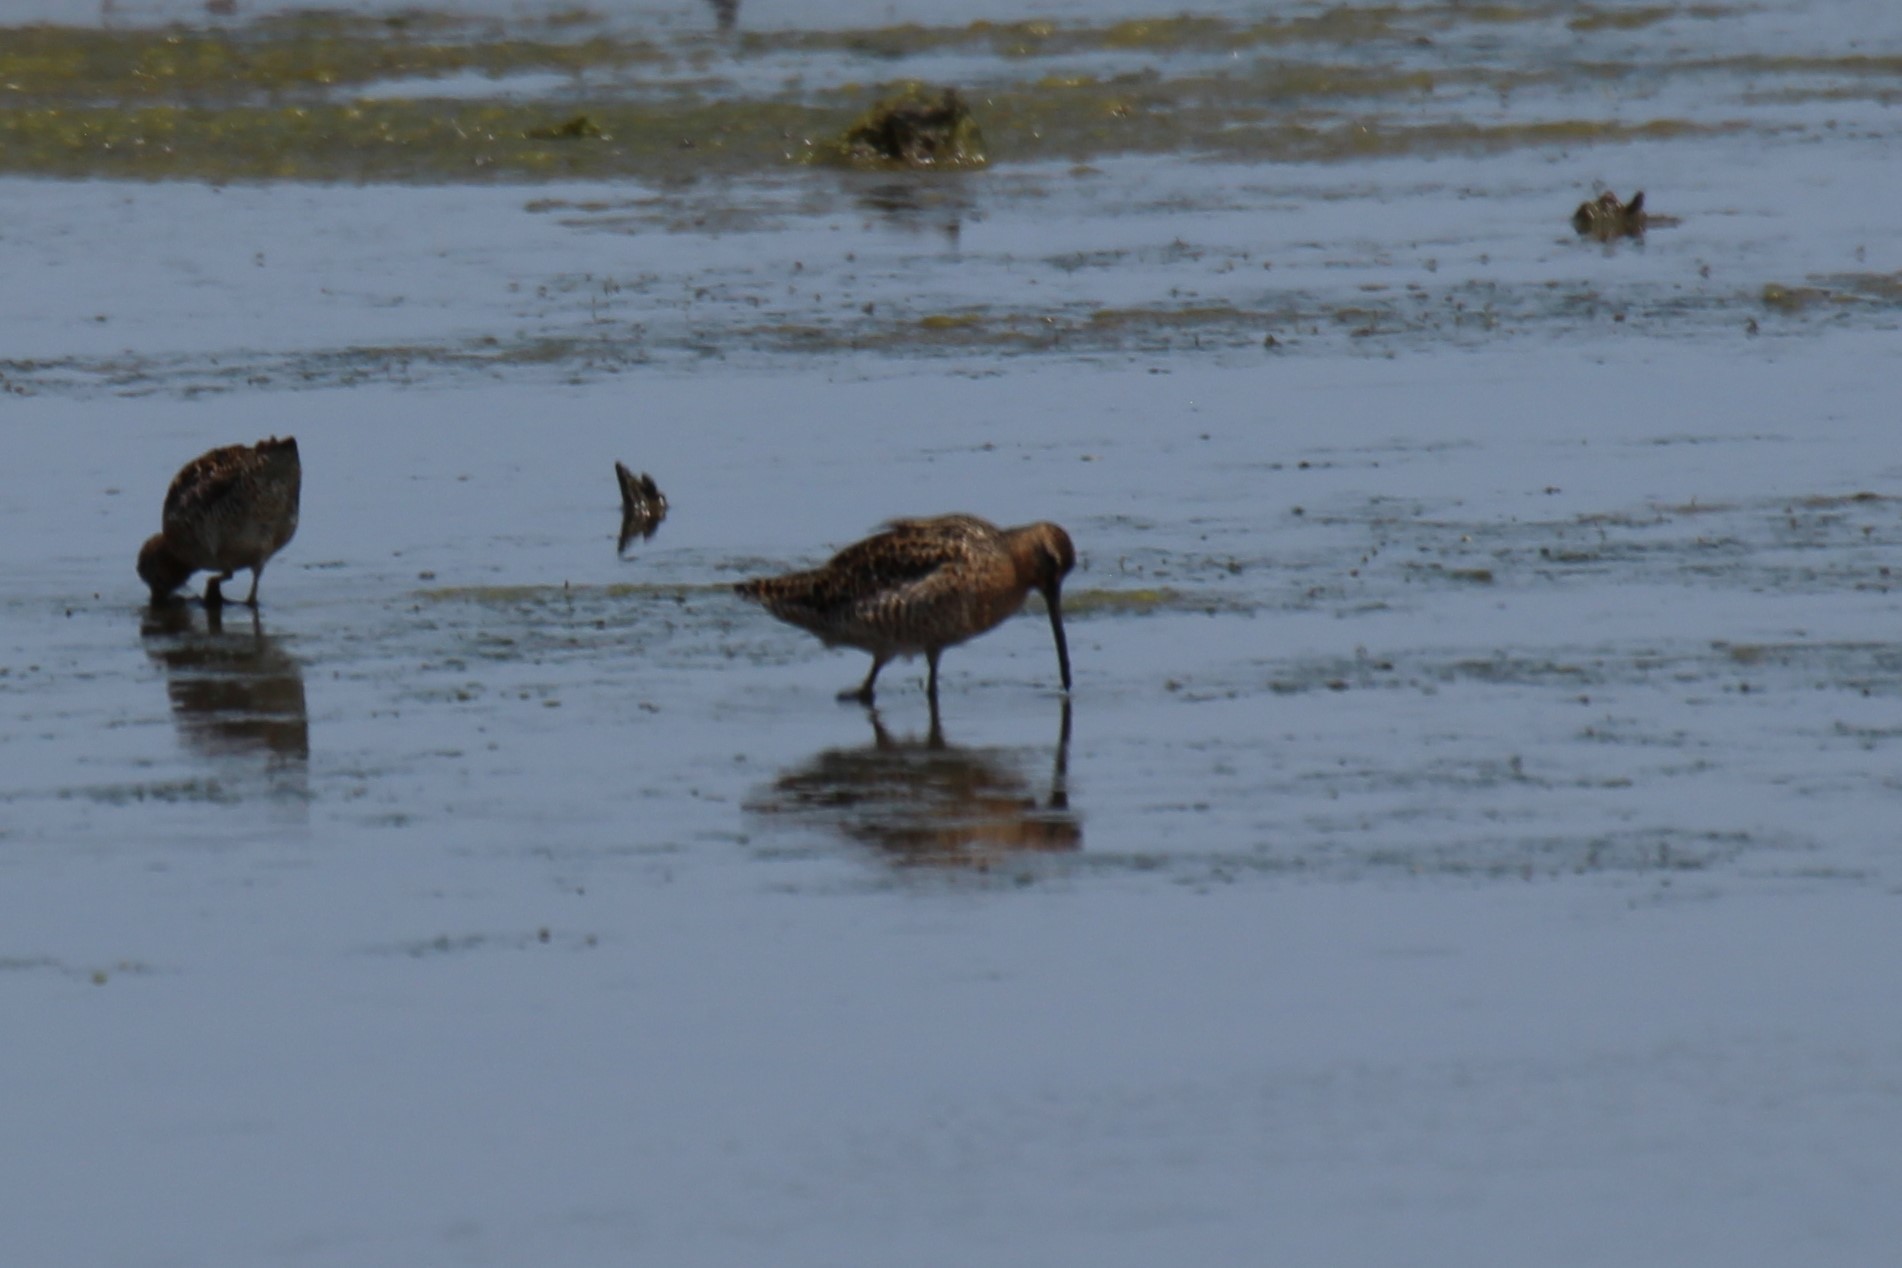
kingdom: Animalia
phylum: Chordata
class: Aves
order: Charadriiformes
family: Scolopacidae
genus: Limnodromus
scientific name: Limnodromus griseus
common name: Short-billed dowitcher
